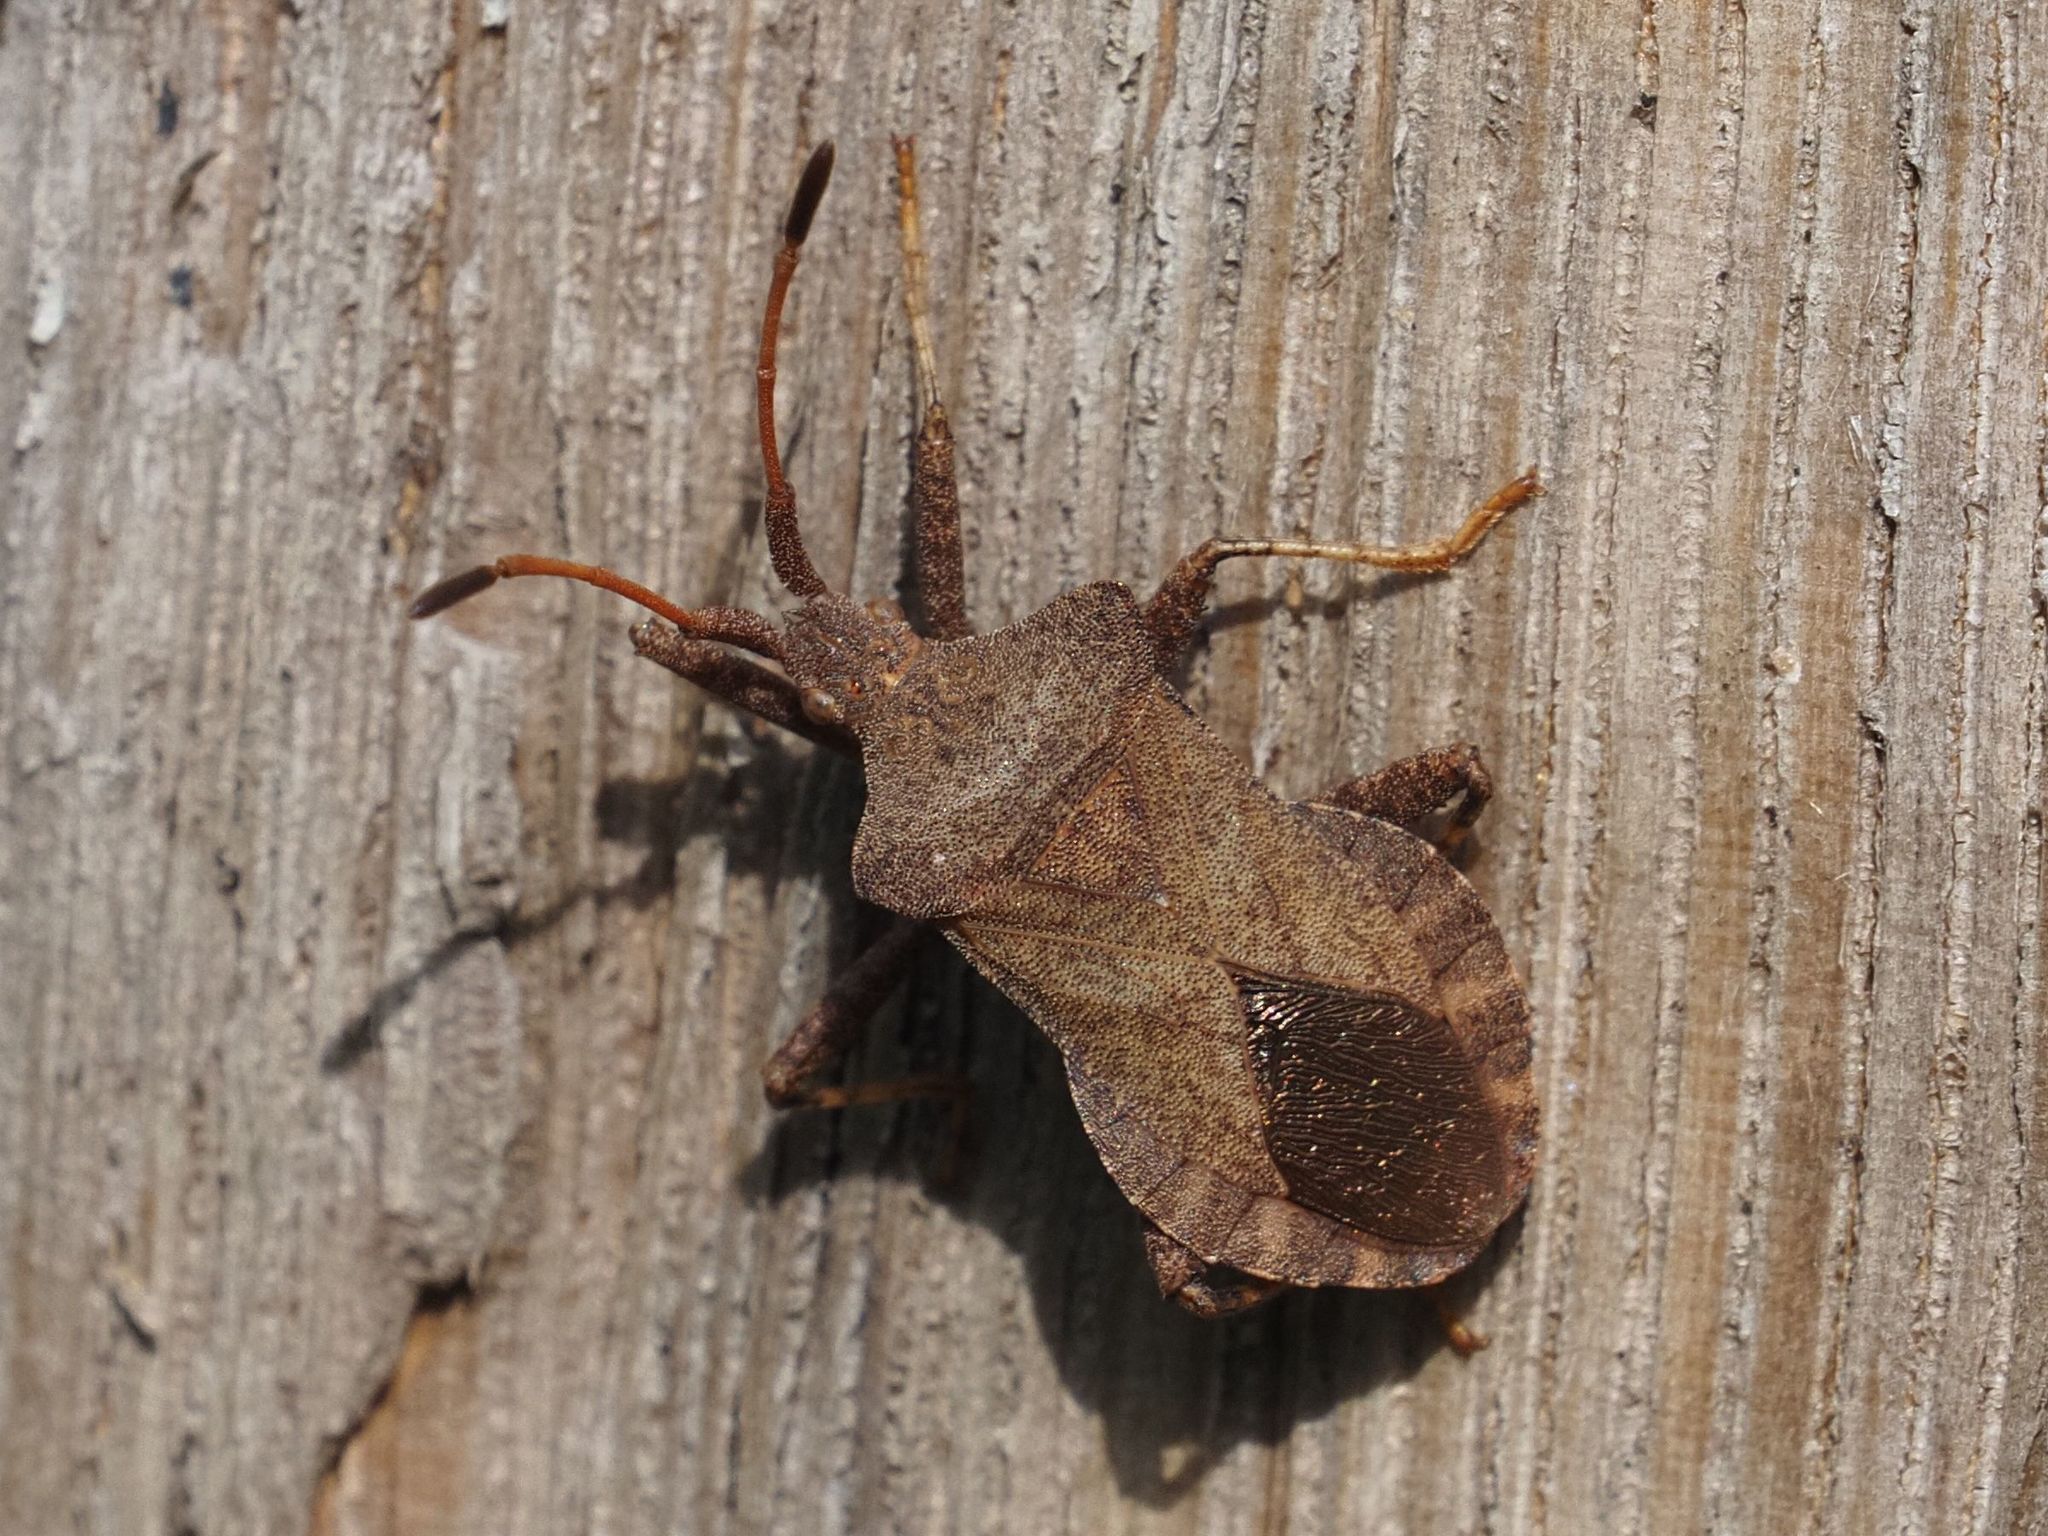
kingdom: Animalia
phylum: Arthropoda
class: Insecta
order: Hemiptera
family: Coreidae
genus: Coreus
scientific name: Coreus marginatus
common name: Dock bug
